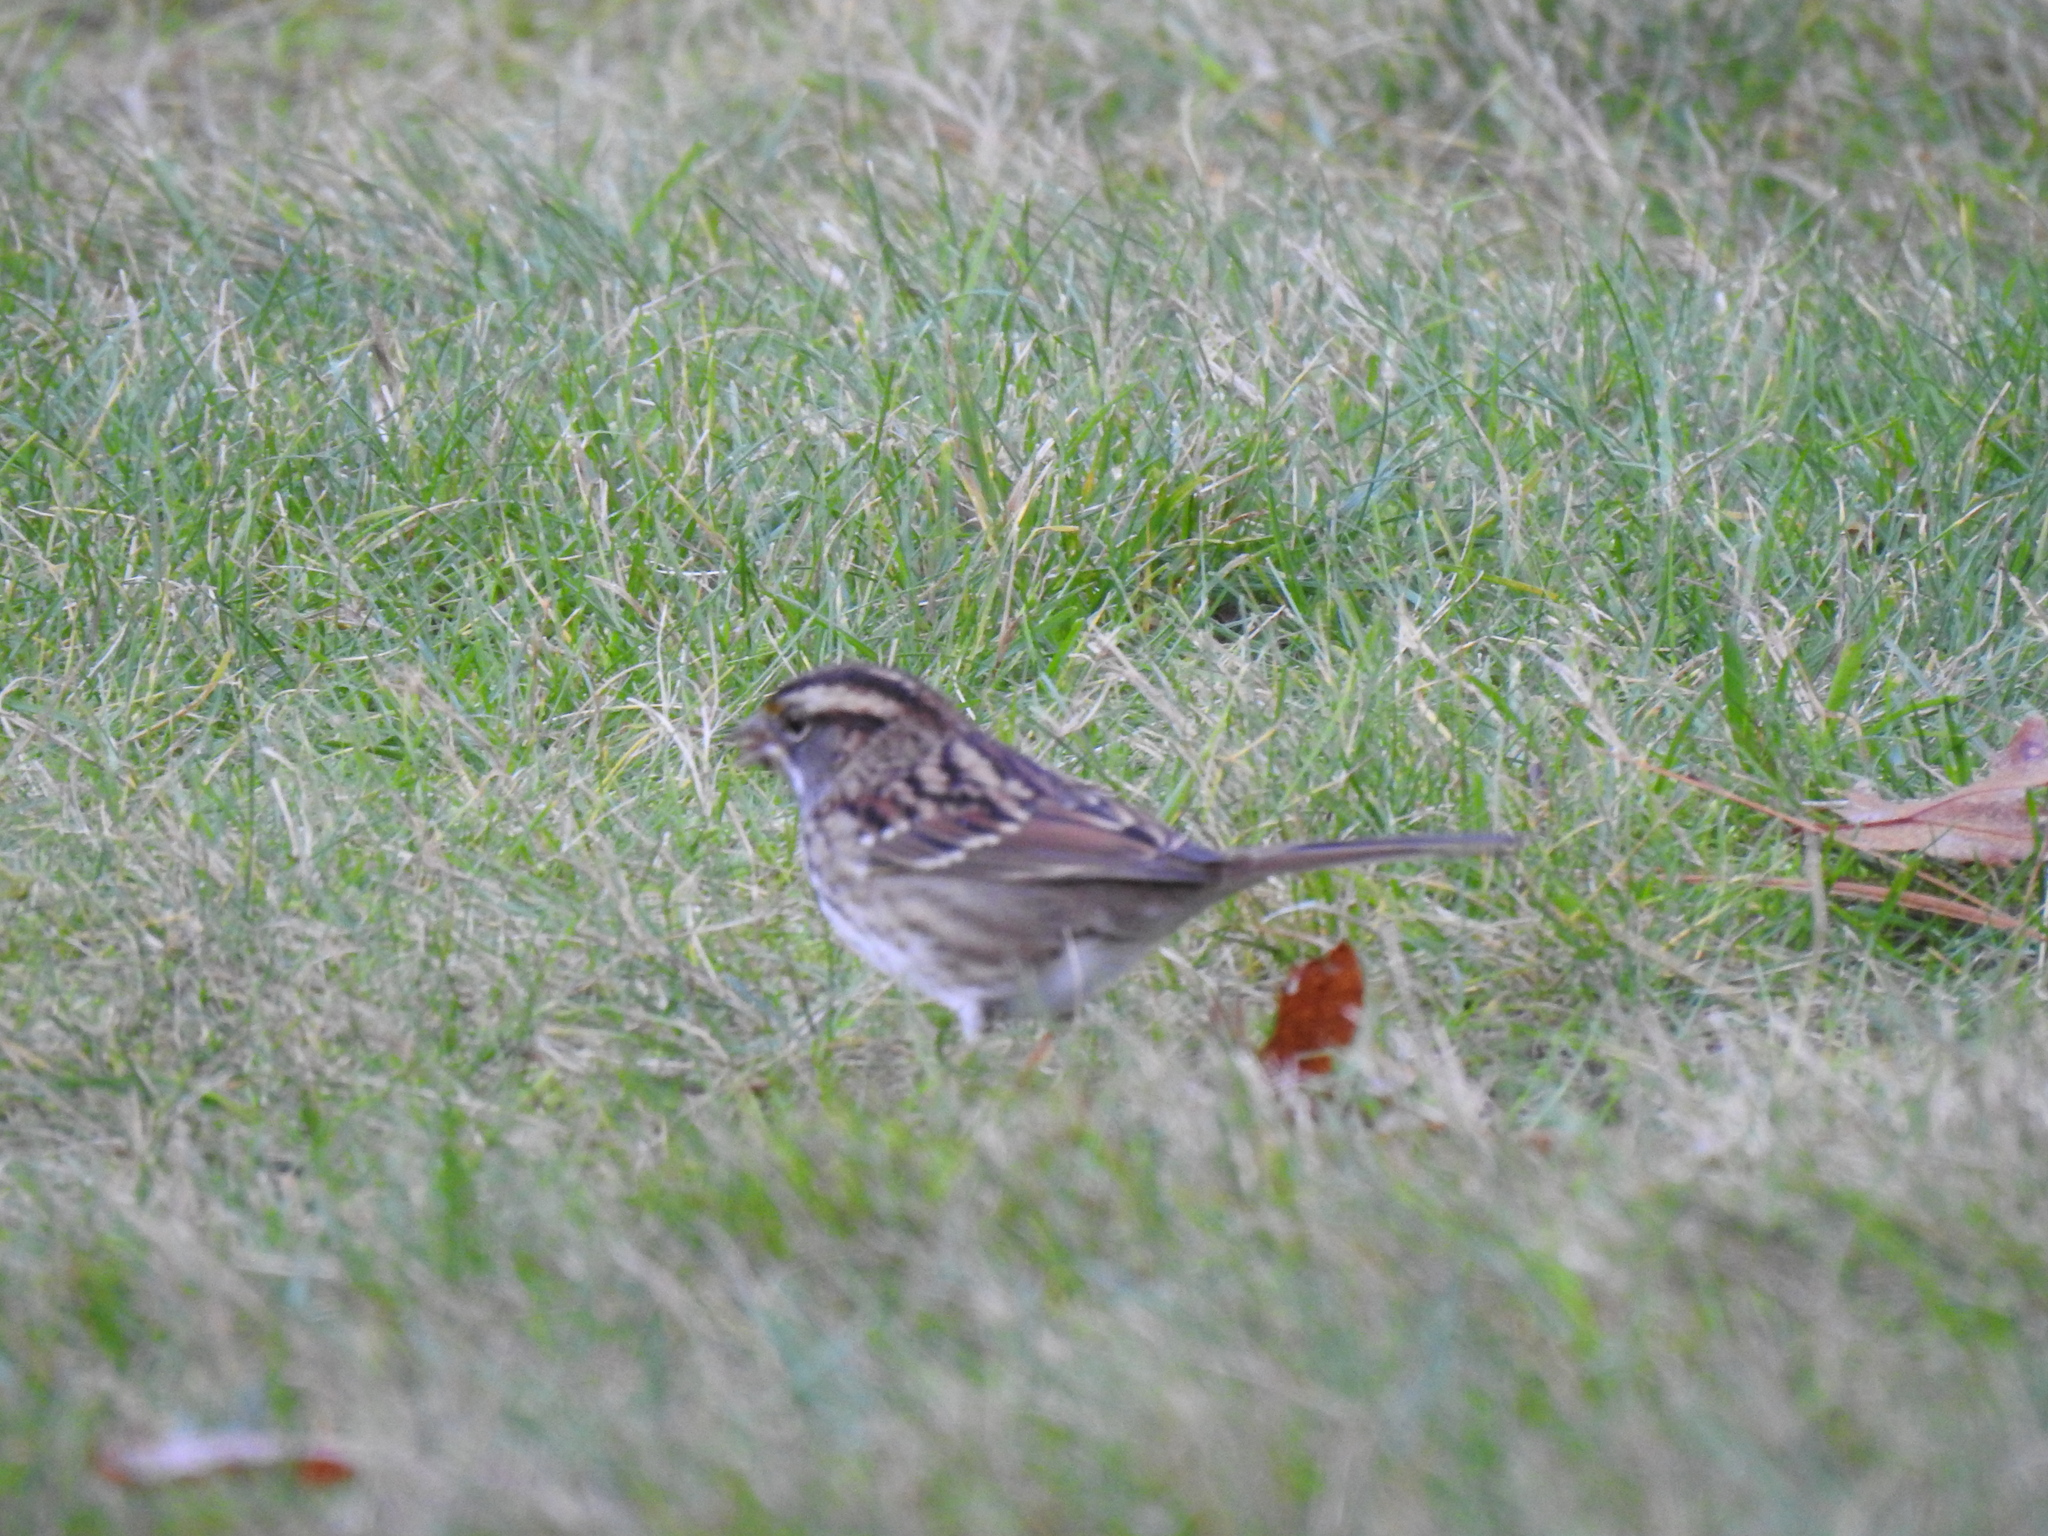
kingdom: Animalia
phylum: Chordata
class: Aves
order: Passeriformes
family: Passerellidae
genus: Zonotrichia
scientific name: Zonotrichia albicollis
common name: White-throated sparrow
